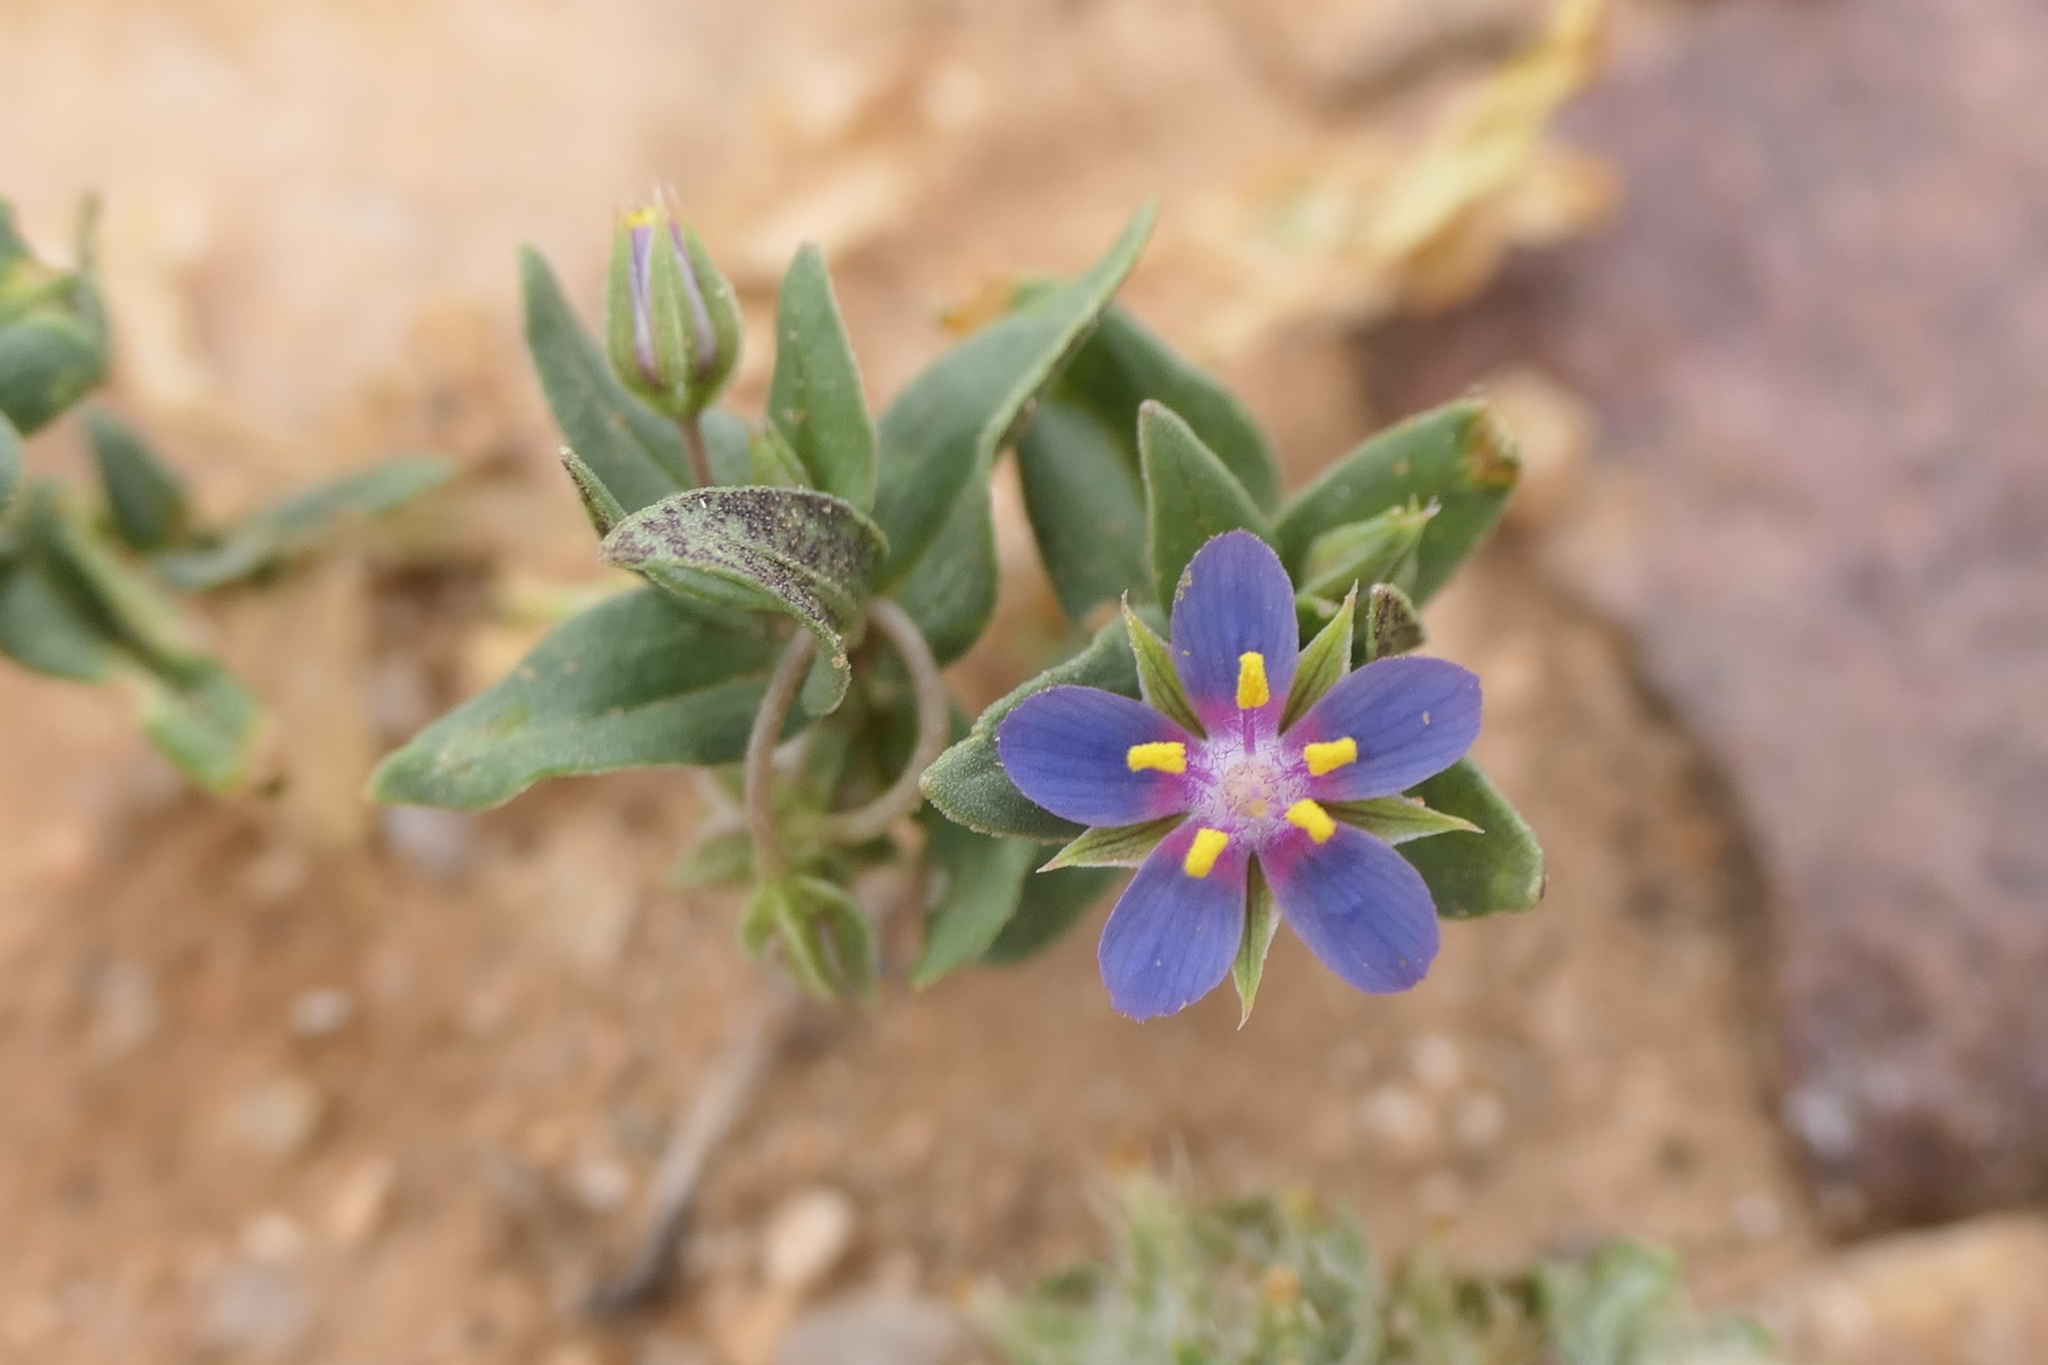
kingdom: Plantae
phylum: Tracheophyta
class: Magnoliopsida
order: Ericales
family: Primulaceae
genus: Lysimachia
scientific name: Lysimachia foemina
